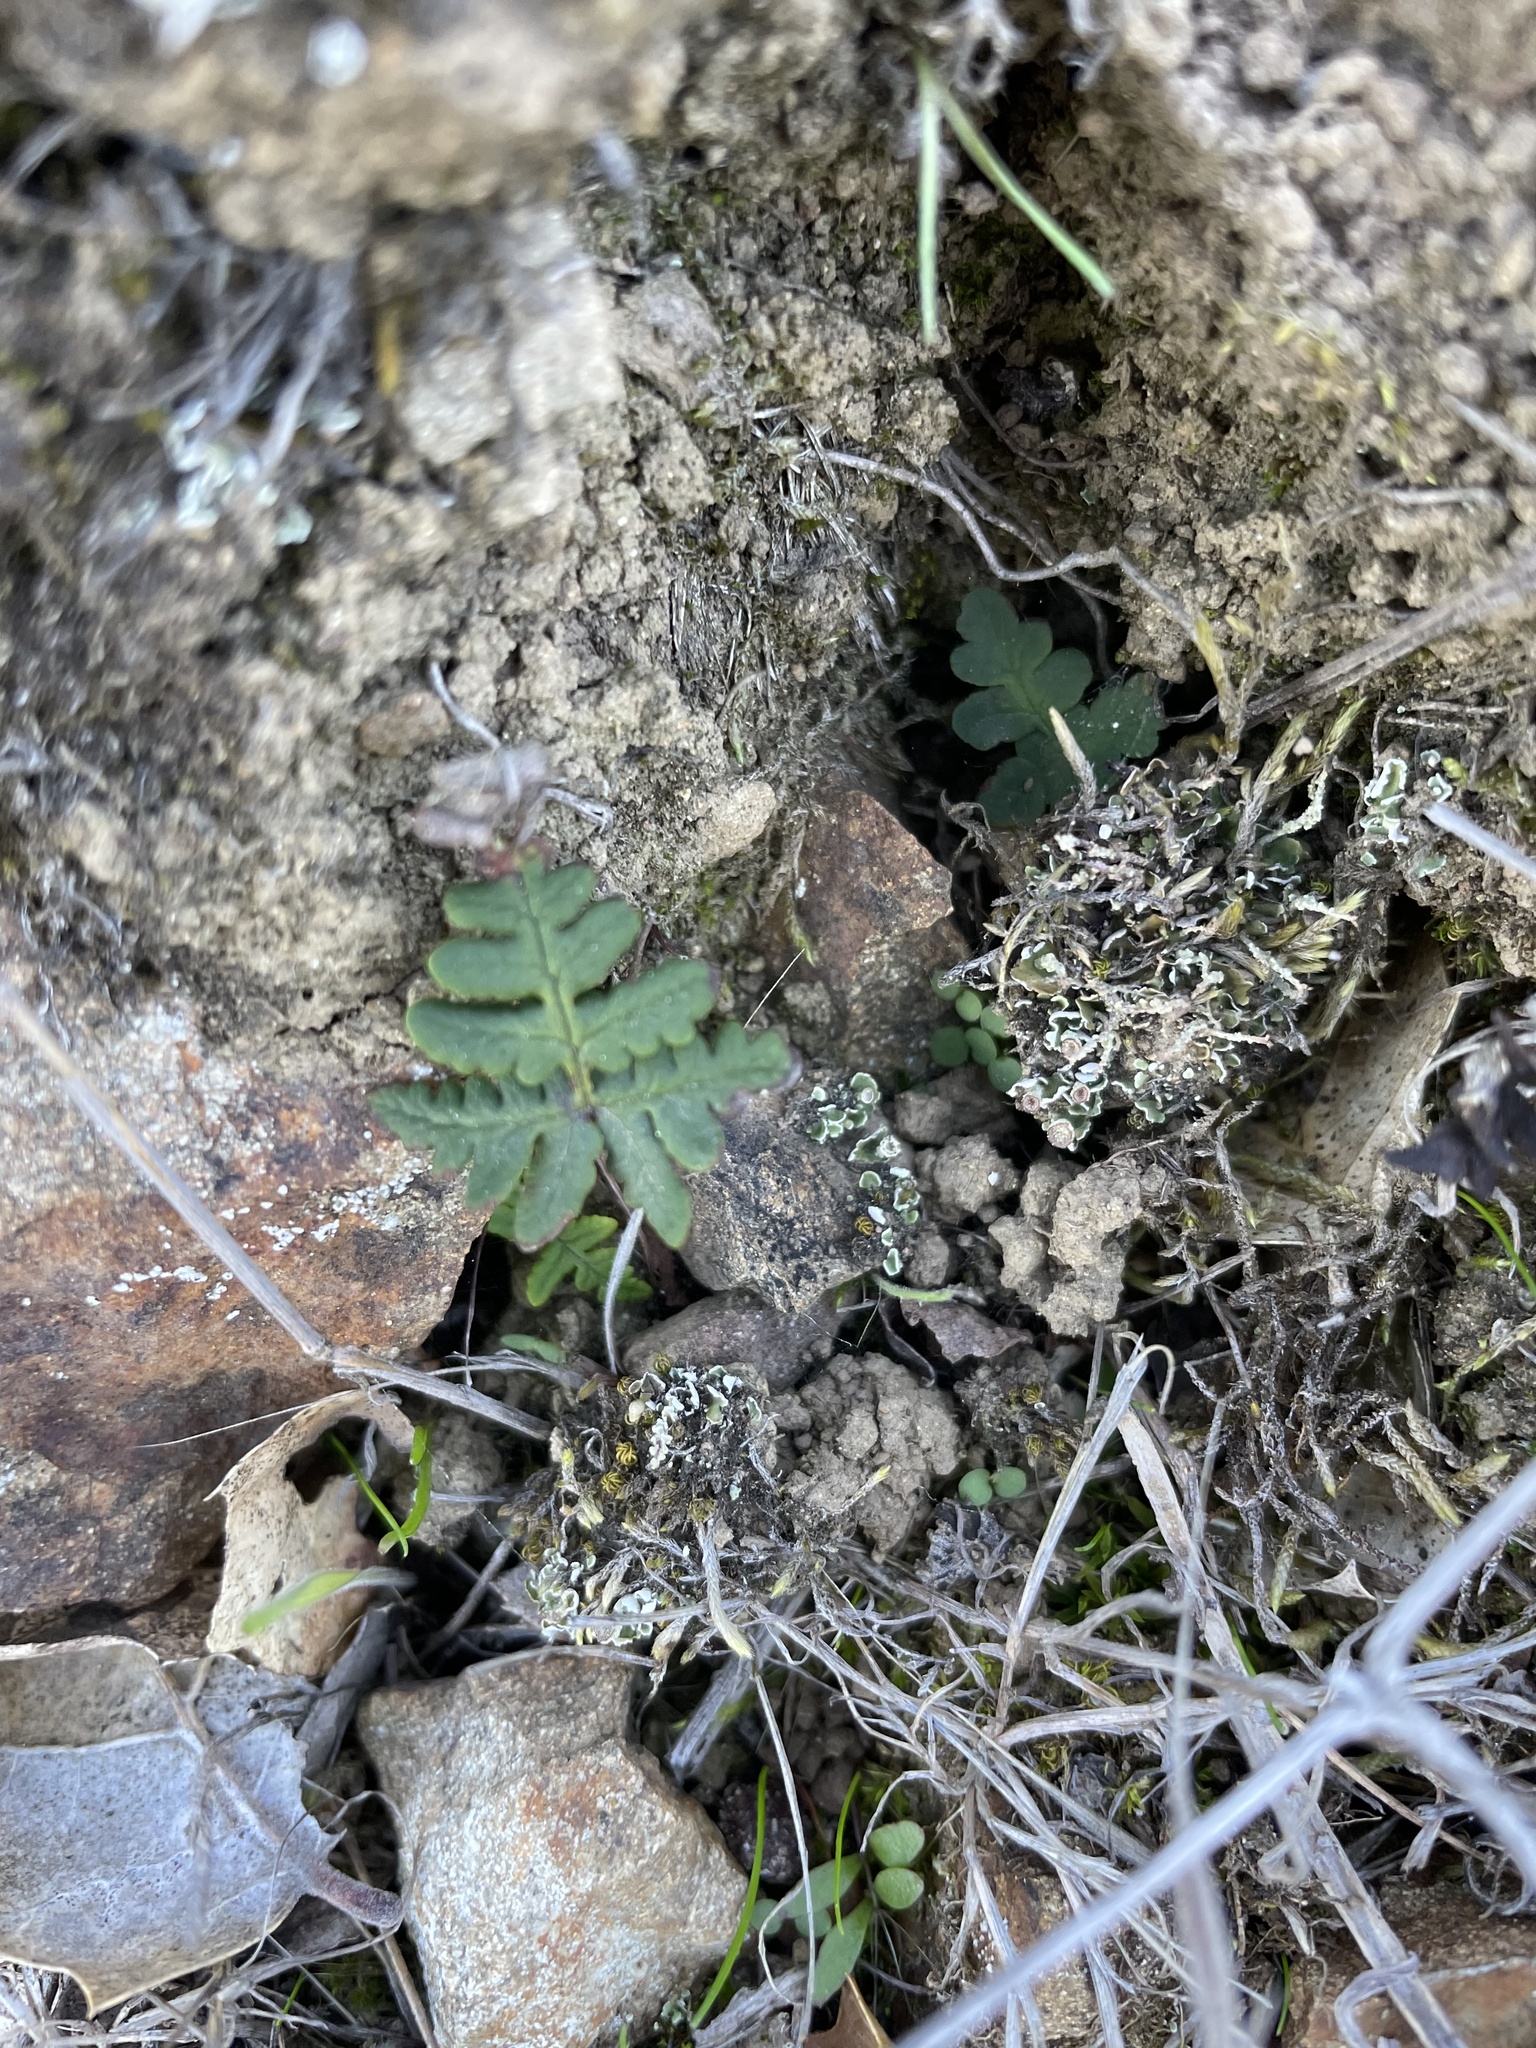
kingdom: Plantae
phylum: Tracheophyta
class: Polypodiopsida
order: Polypodiales
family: Pteridaceae
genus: Pentagramma
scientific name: Pentagramma triangularis
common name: Gold fern
